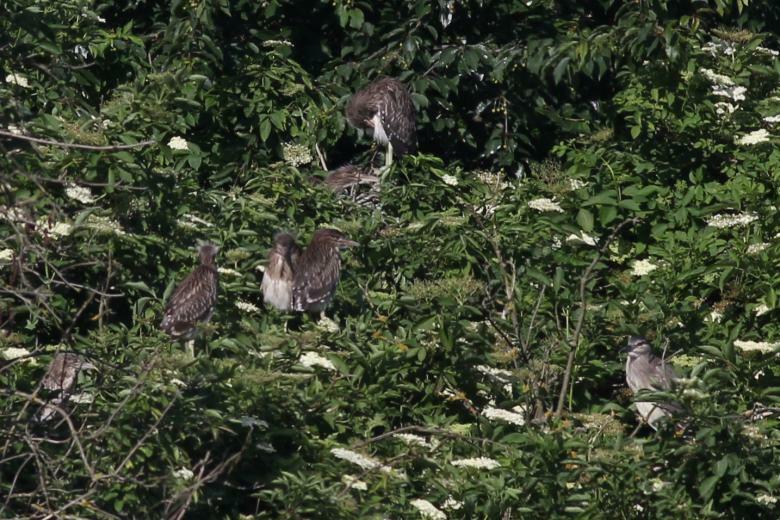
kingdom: Animalia
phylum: Chordata
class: Aves
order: Pelecaniformes
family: Ardeidae
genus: Nycticorax
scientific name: Nycticorax nycticorax
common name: Black-crowned night heron
